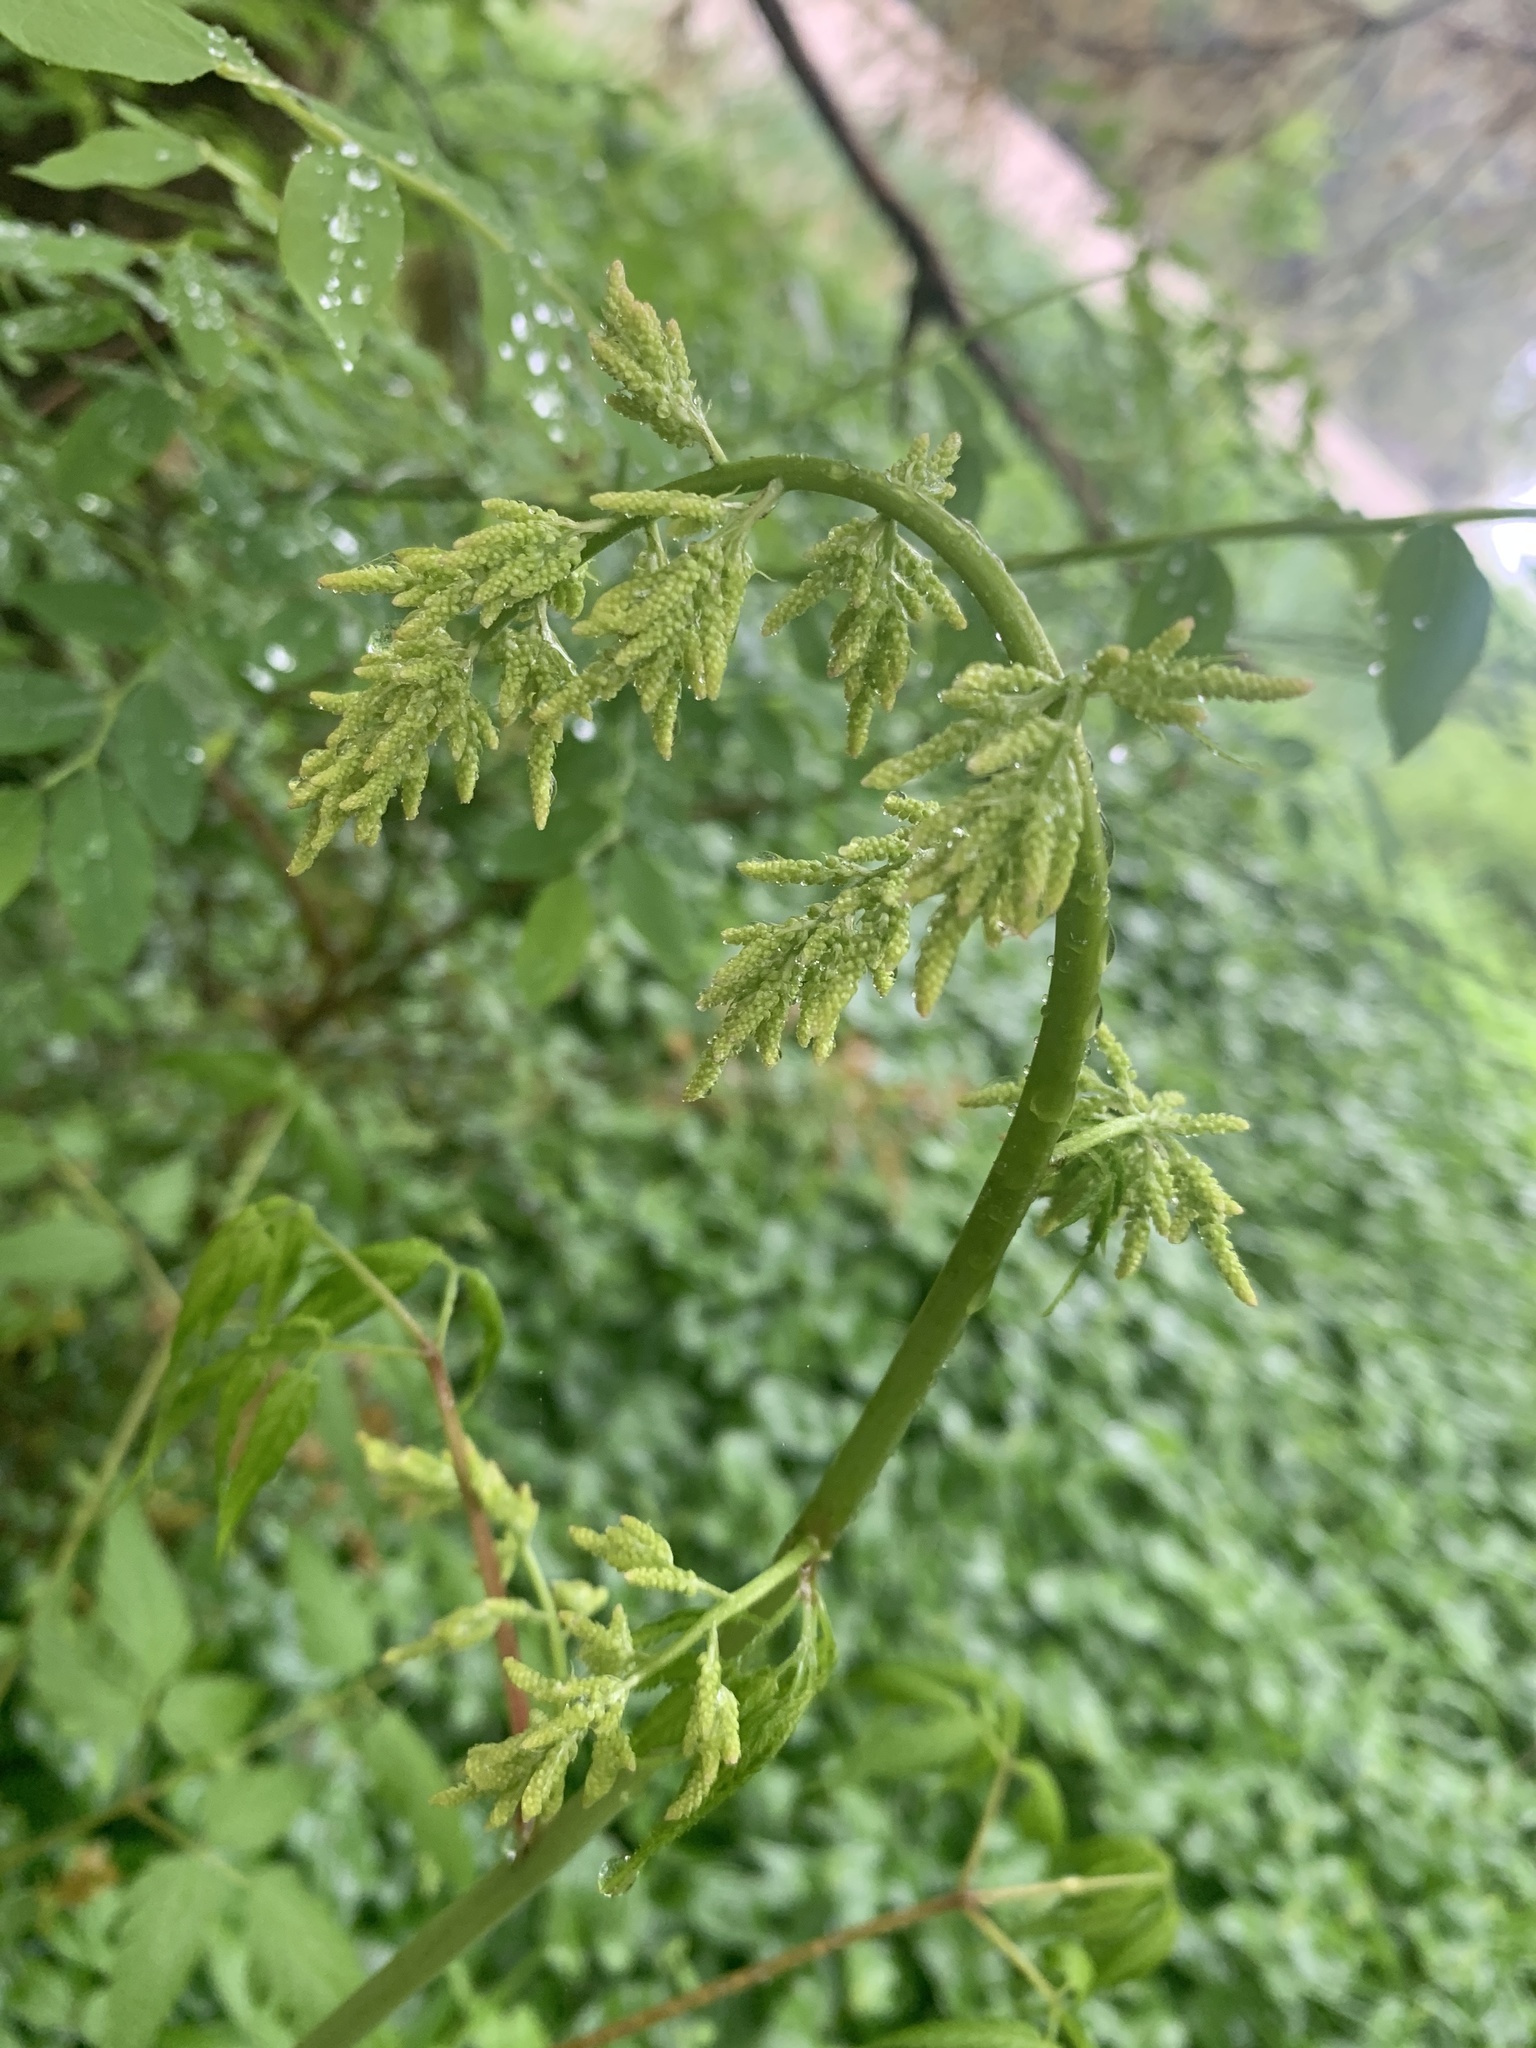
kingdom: Plantae
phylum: Tracheophyta
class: Magnoliopsida
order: Rosales
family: Rosaceae
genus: Aruncus
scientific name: Aruncus dioicus
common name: Buck's-beard
